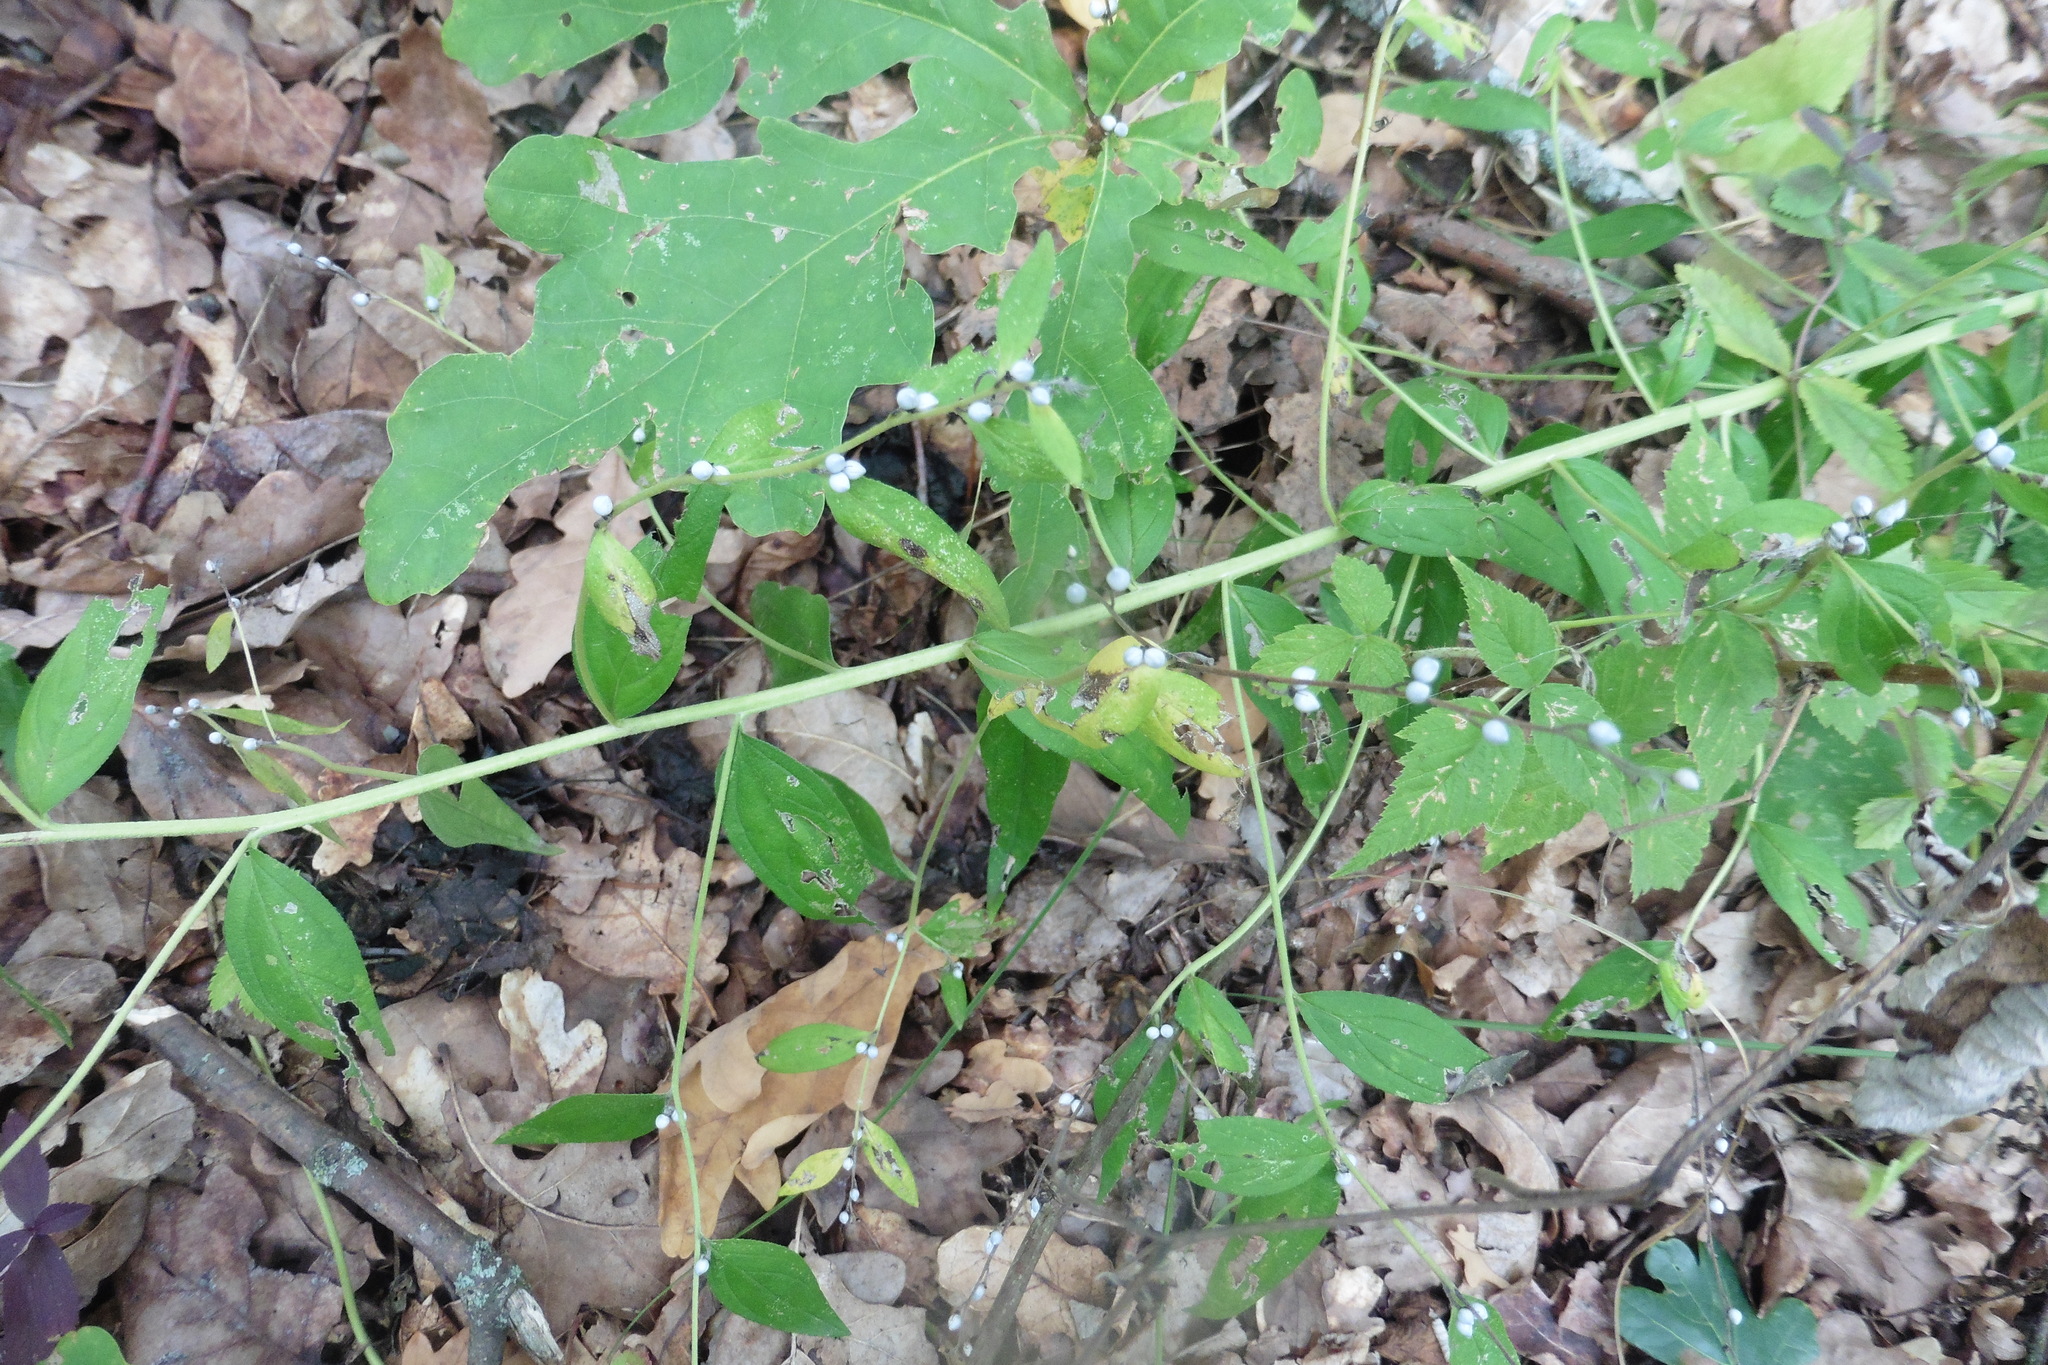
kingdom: Plantae
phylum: Tracheophyta
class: Magnoliopsida
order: Boraginales
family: Boraginaceae
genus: Lithospermum
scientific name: Lithospermum officinale
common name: Common gromwell
